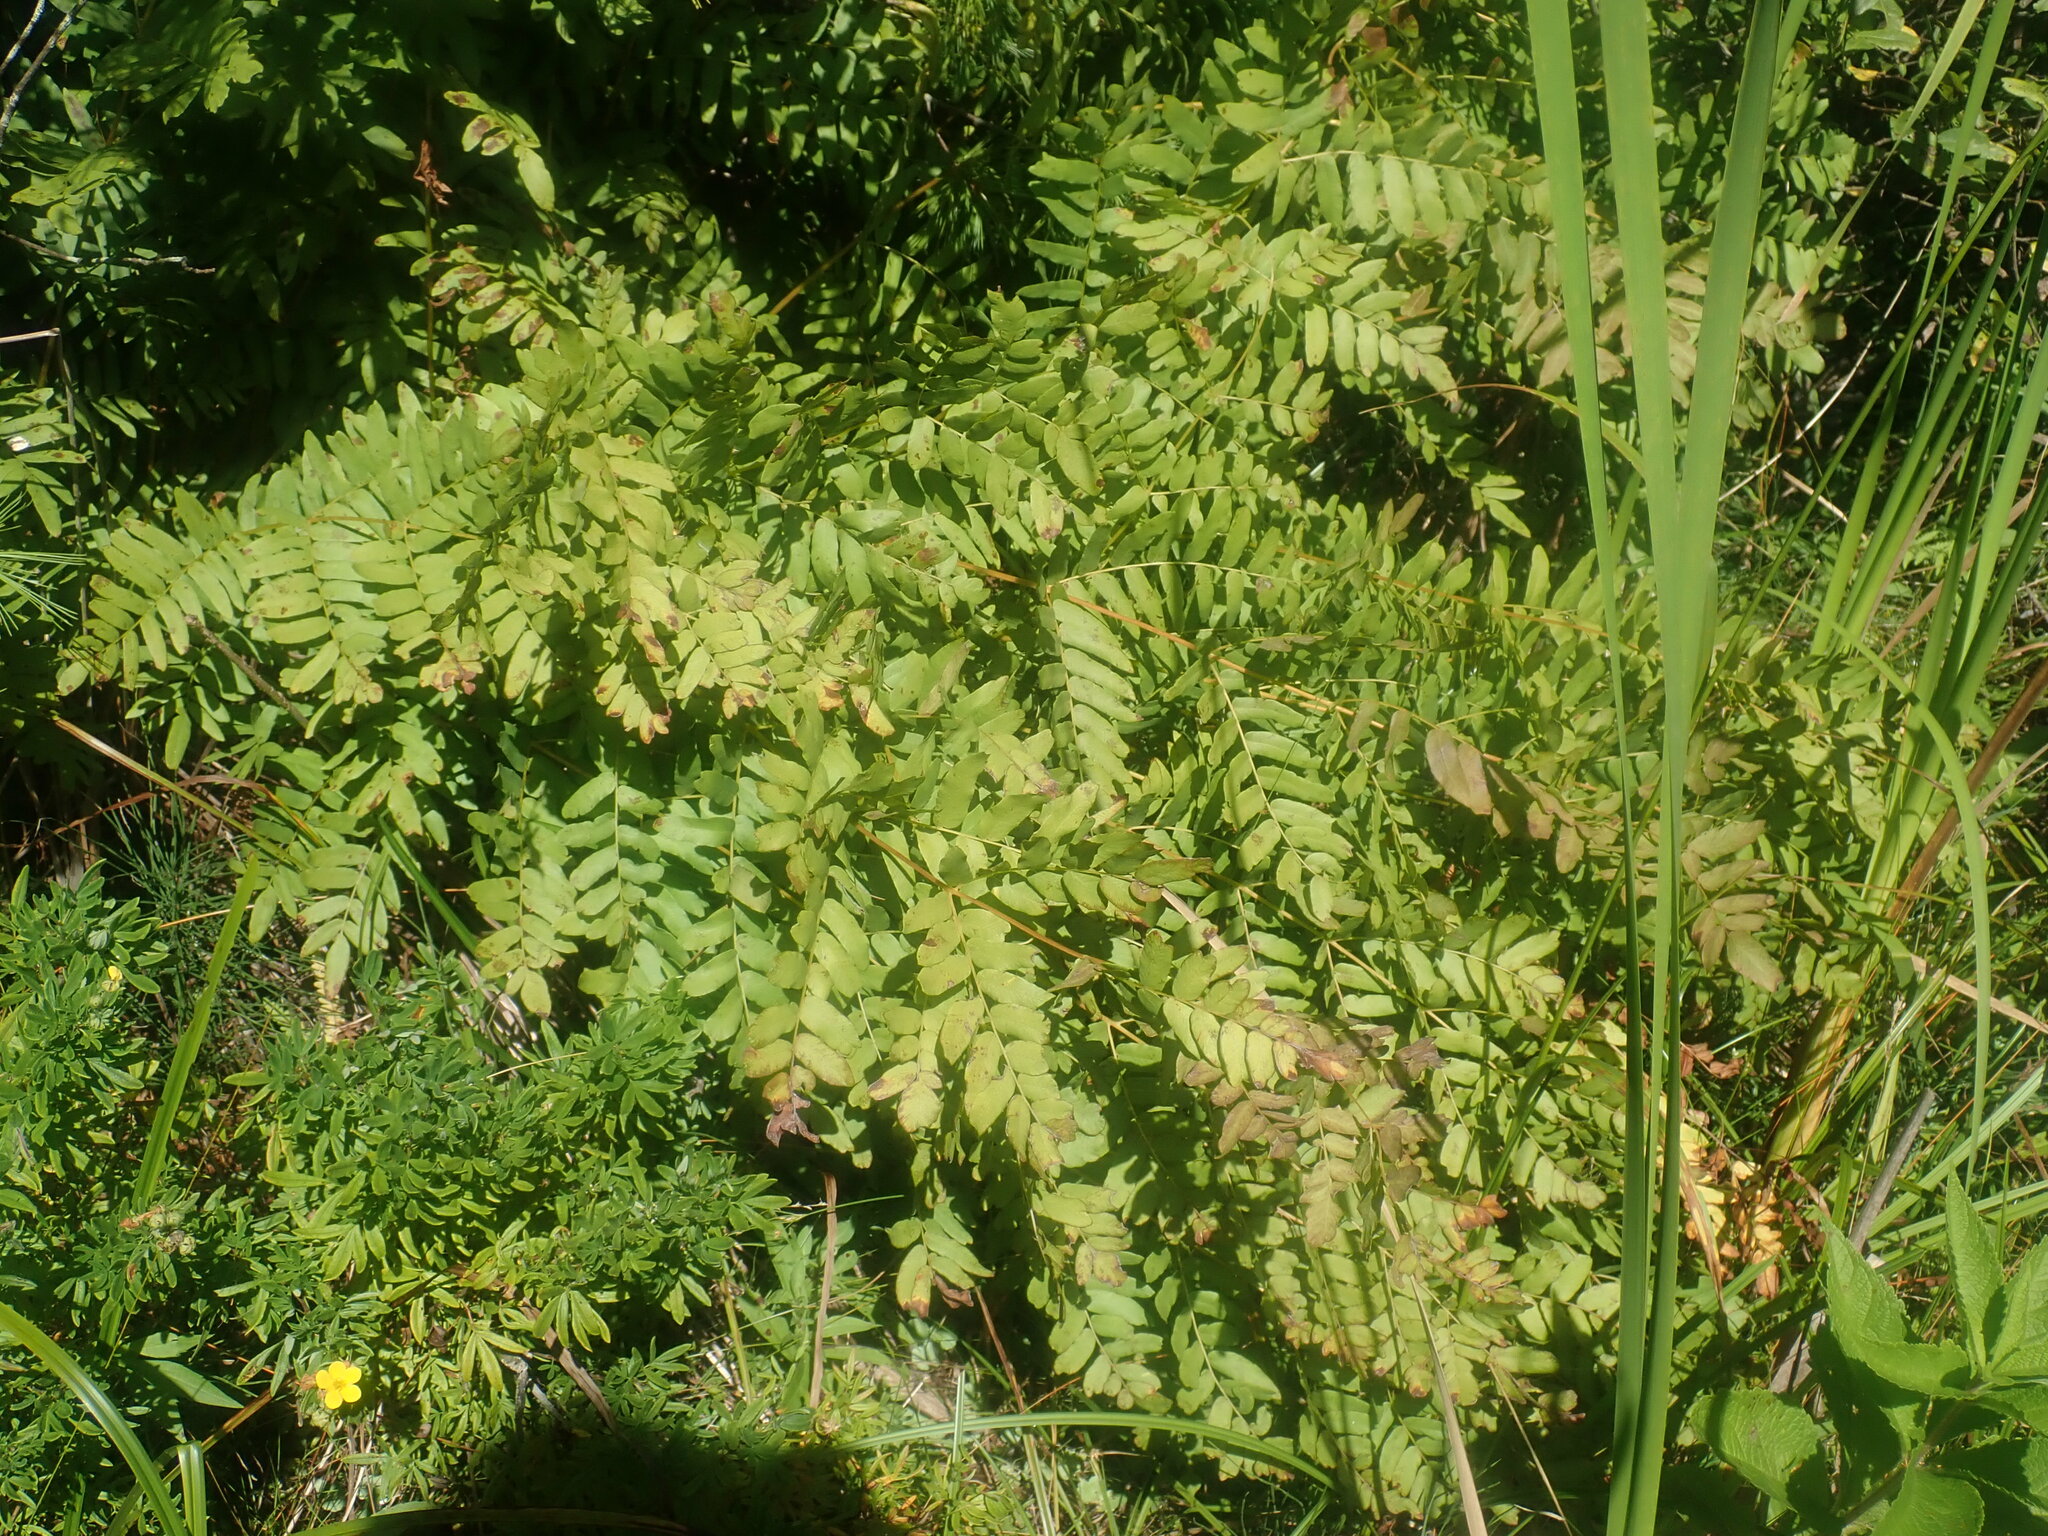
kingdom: Plantae
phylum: Tracheophyta
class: Polypodiopsida
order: Osmundales
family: Osmundaceae
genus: Osmunda
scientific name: Osmunda spectabilis
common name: American royal fern
